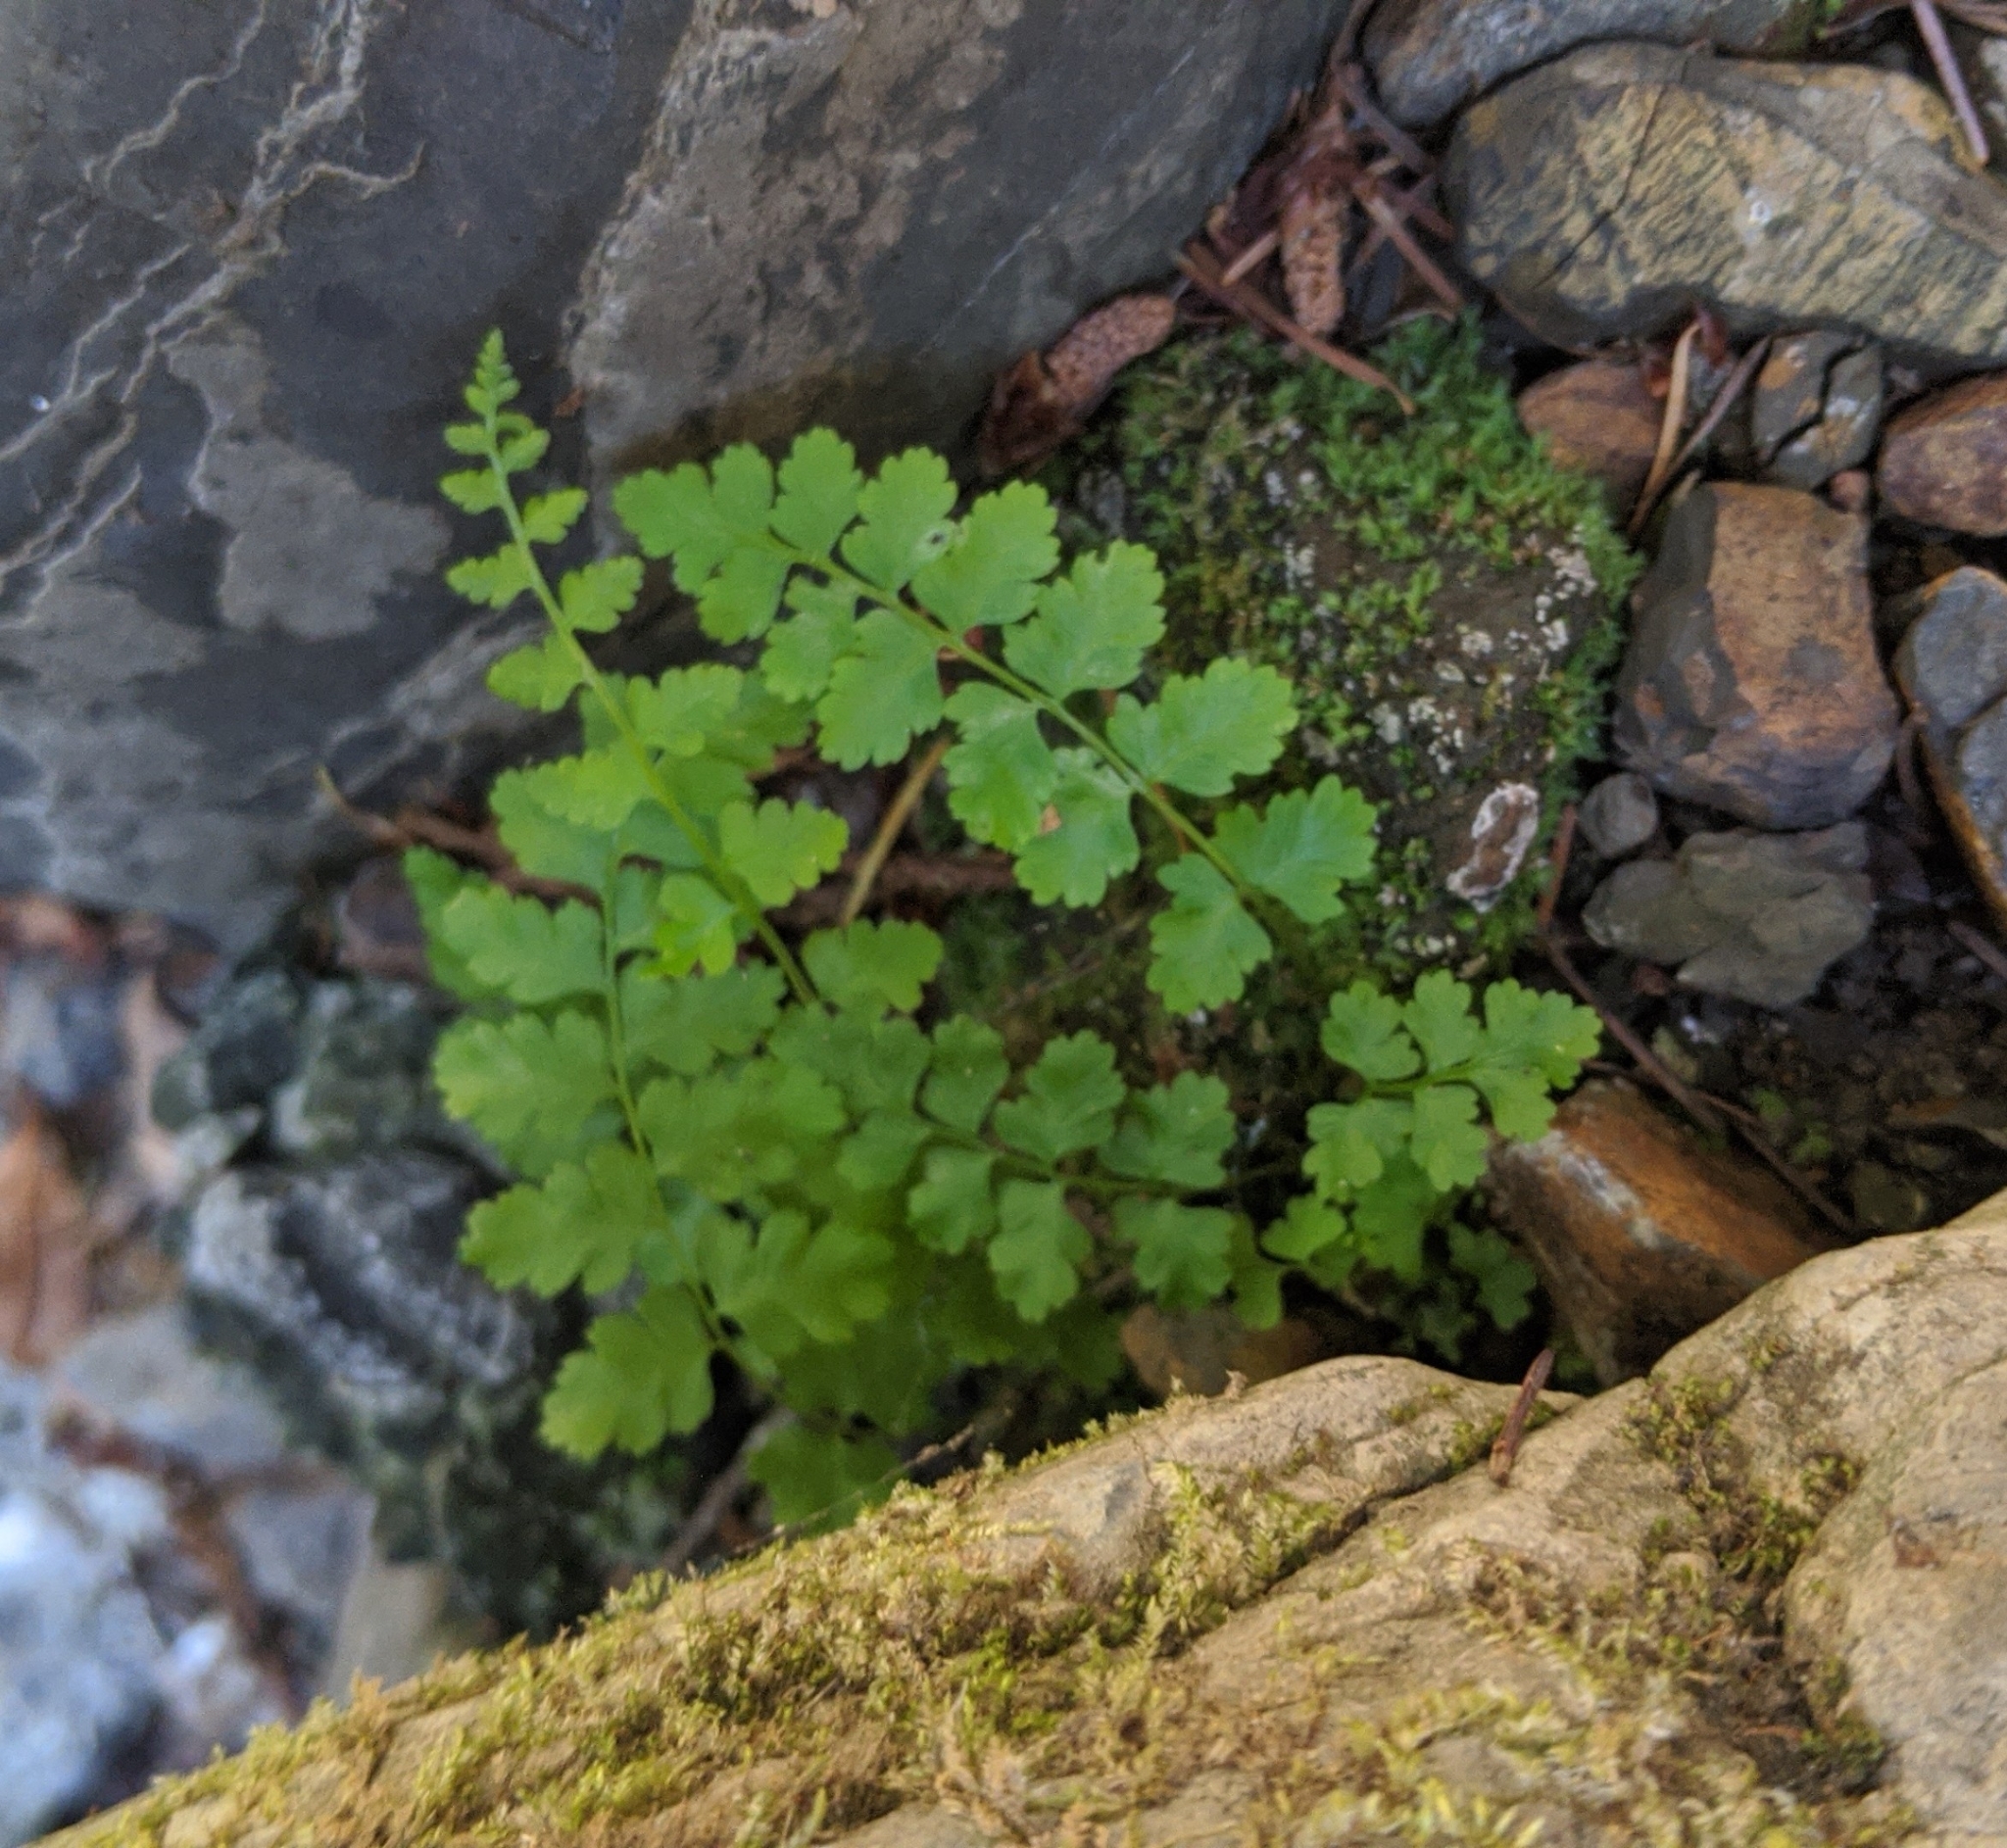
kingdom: Plantae
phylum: Tracheophyta
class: Polypodiopsida
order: Polypodiales
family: Cystopteridaceae
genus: Cystopteris
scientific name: Cystopteris fragilis
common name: Brittle bladder fern
